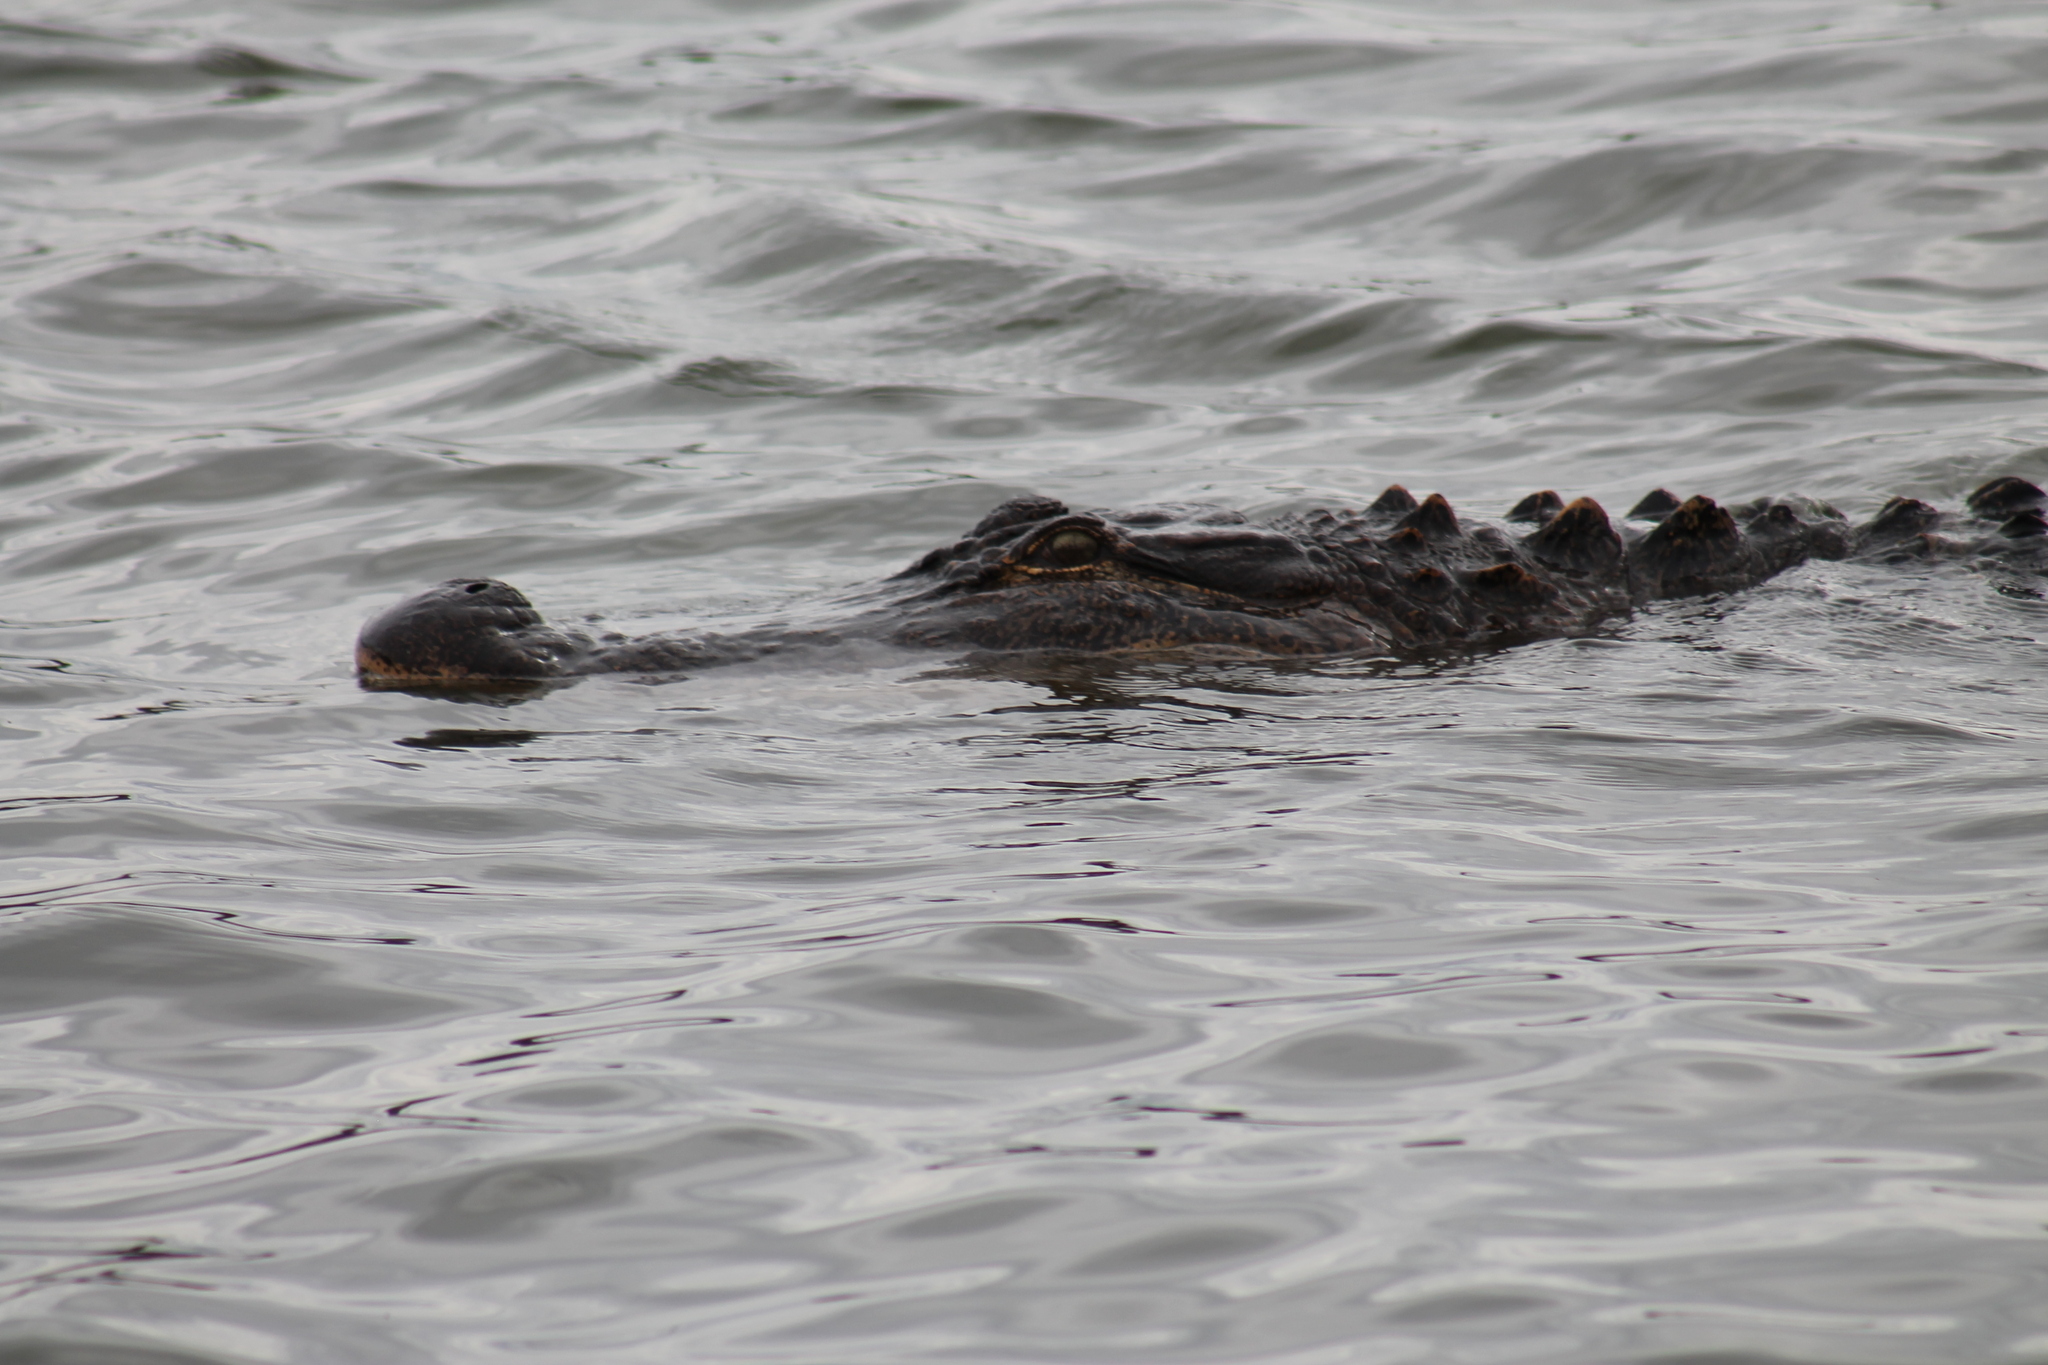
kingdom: Animalia
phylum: Chordata
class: Crocodylia
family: Alligatoridae
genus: Alligator
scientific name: Alligator mississippiensis
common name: American alligator
